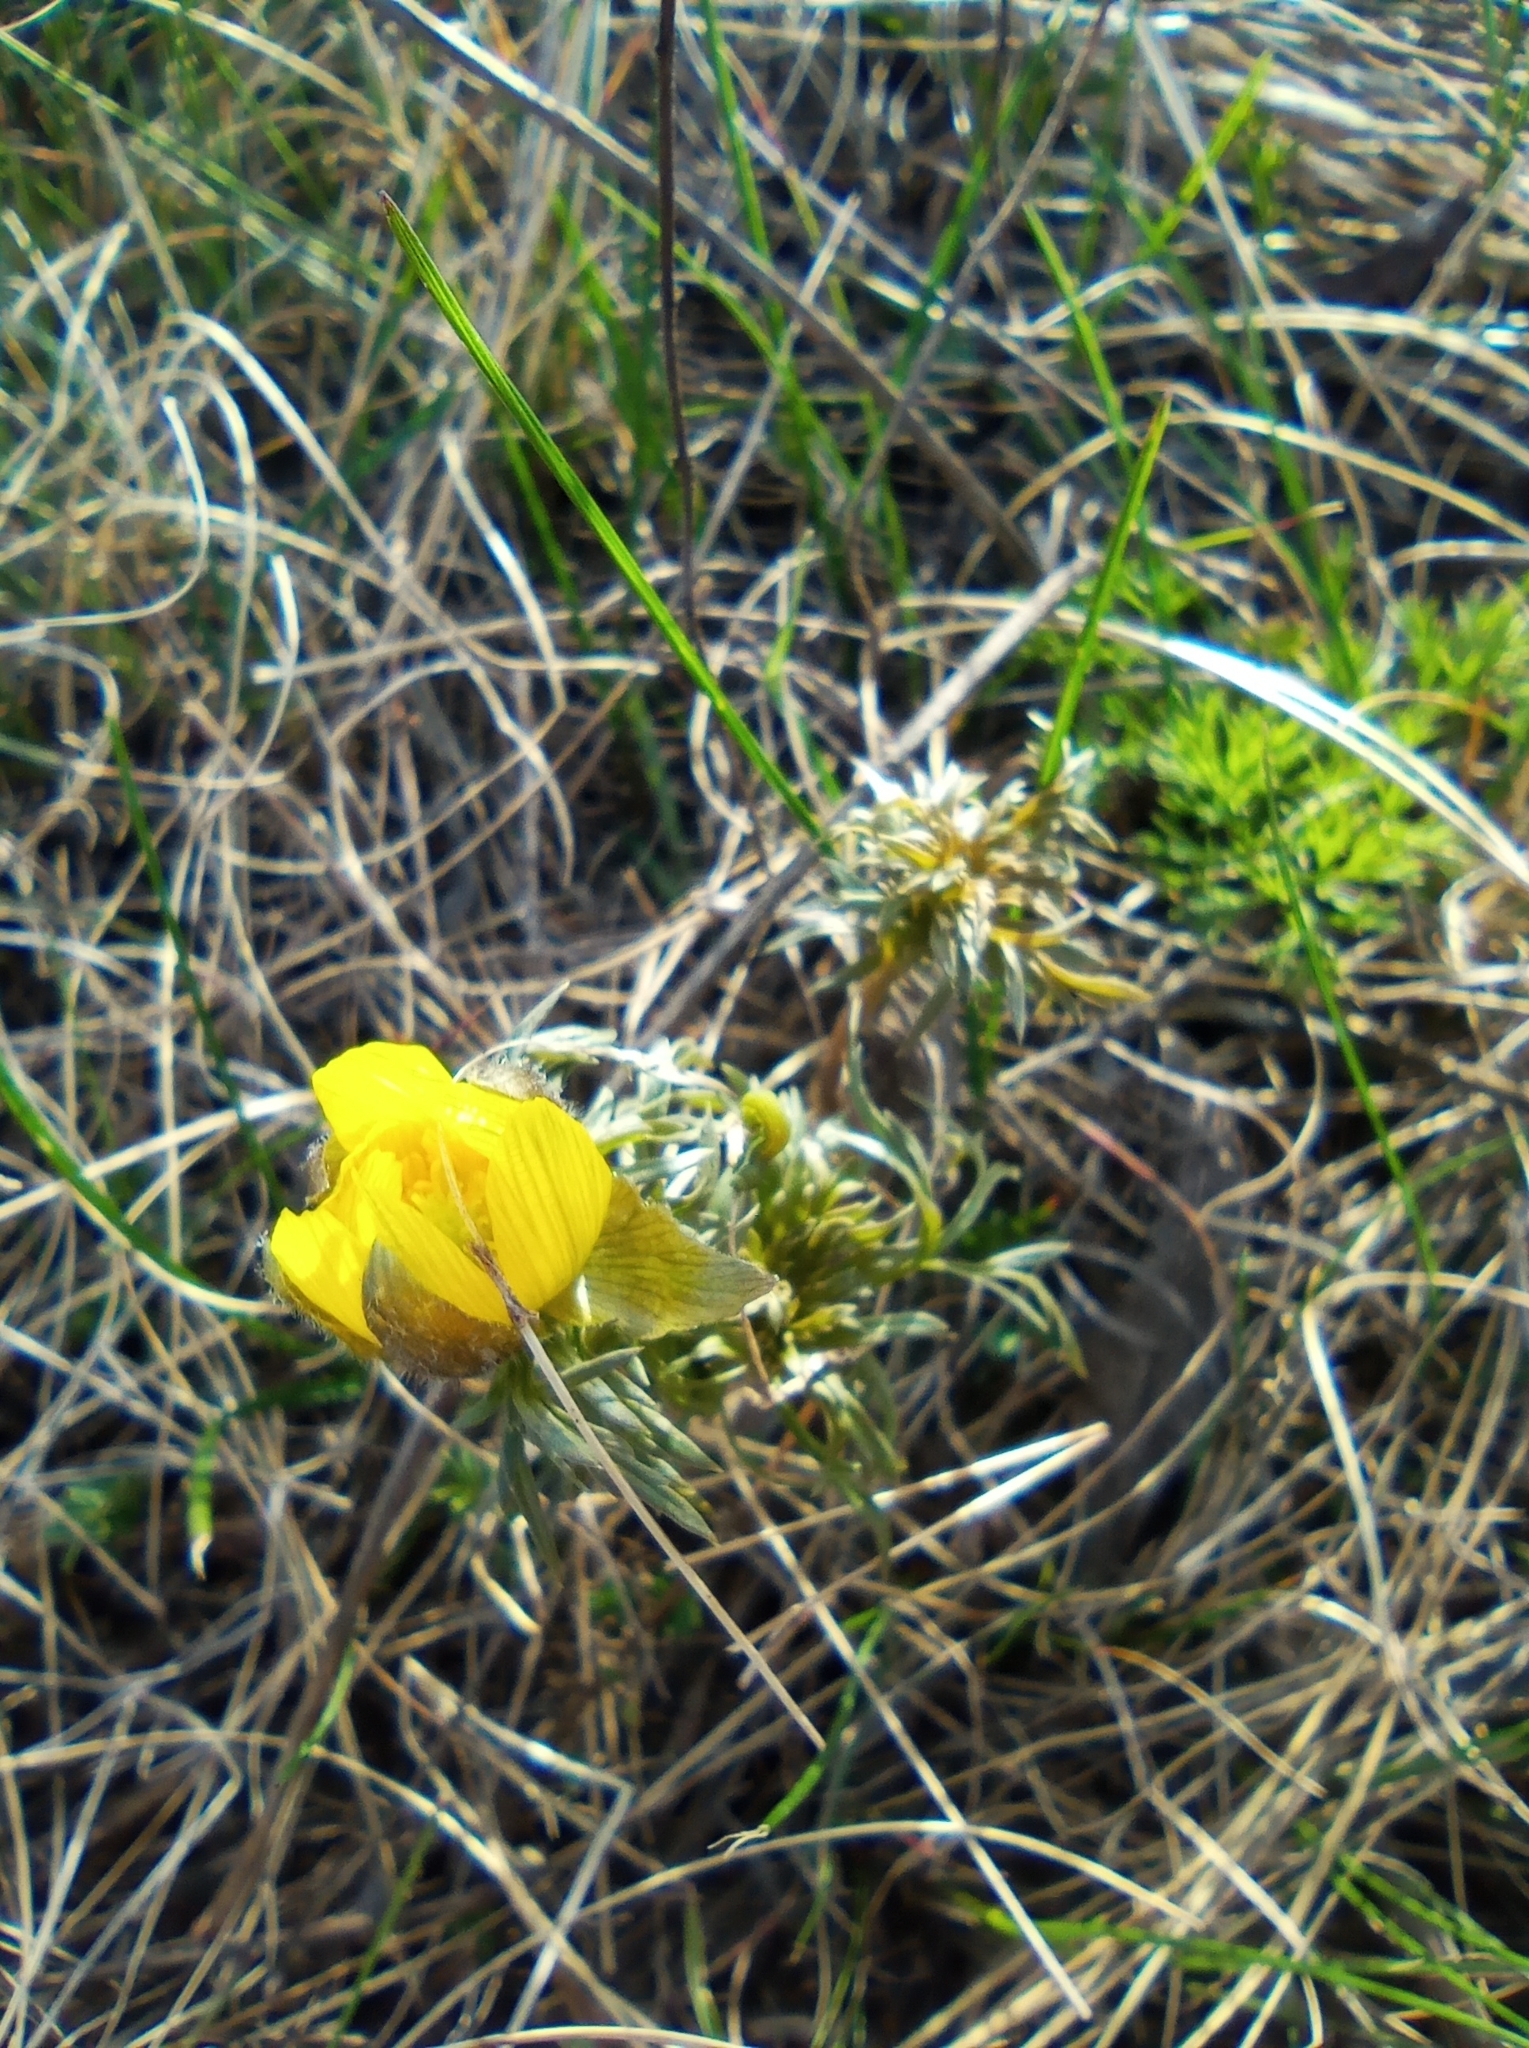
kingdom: Plantae
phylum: Tracheophyta
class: Magnoliopsida
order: Ranunculales
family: Ranunculaceae
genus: Adonis
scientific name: Adonis volgensis
